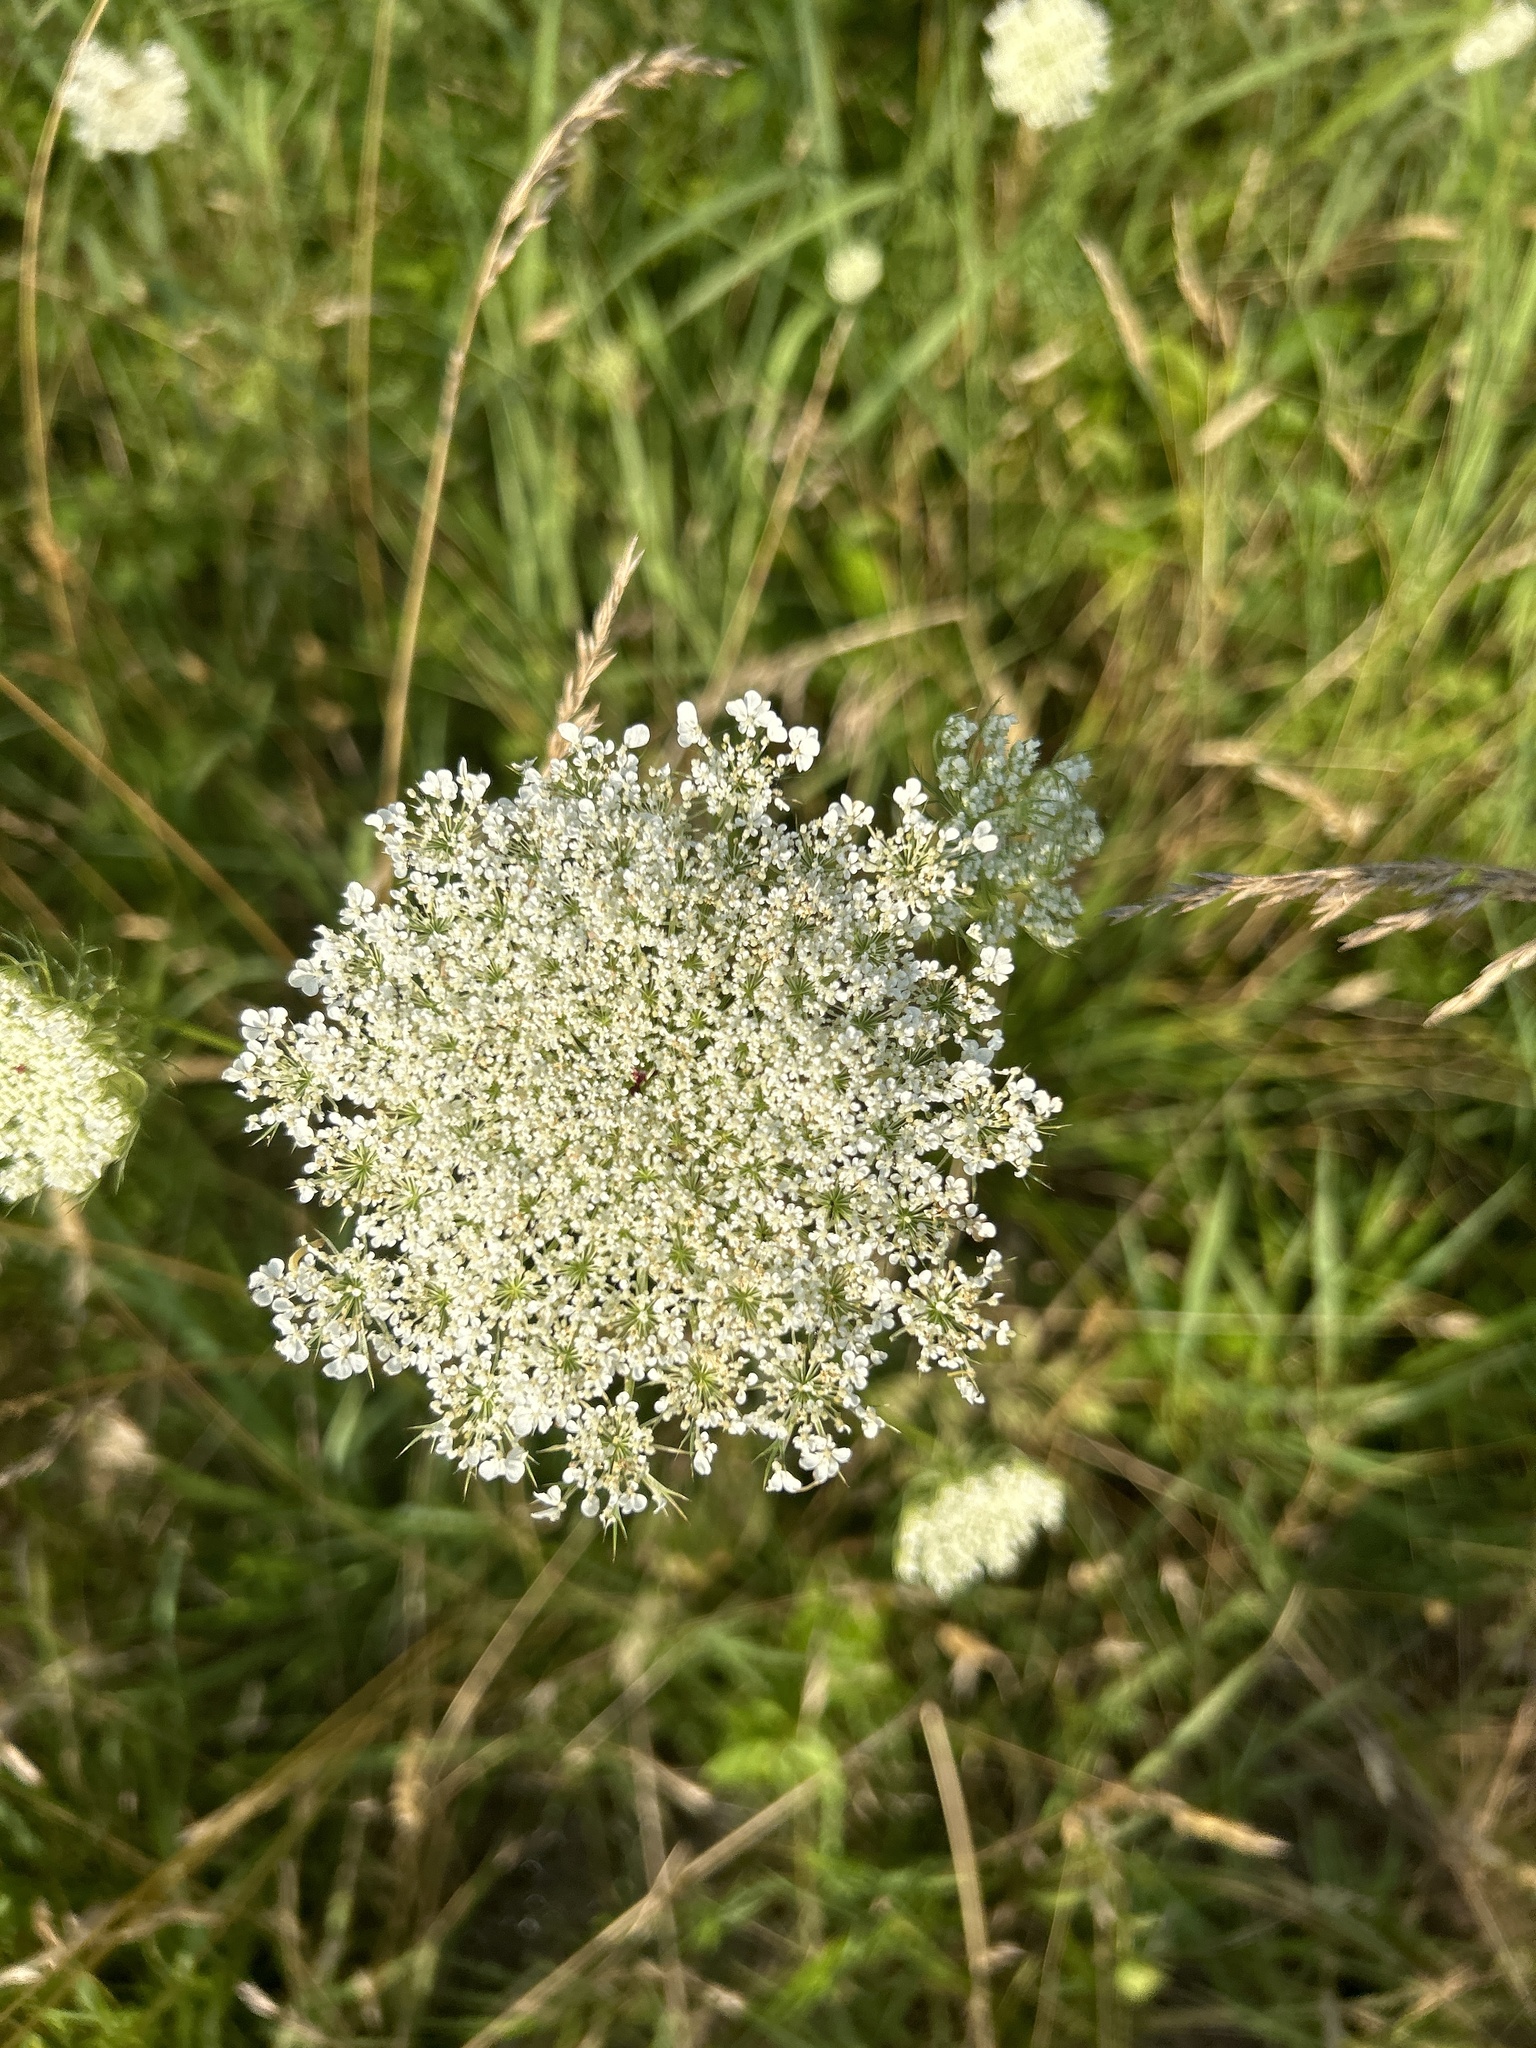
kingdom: Plantae
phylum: Tracheophyta
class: Magnoliopsida
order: Apiales
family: Apiaceae
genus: Daucus
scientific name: Daucus carota
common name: Wild carrot
